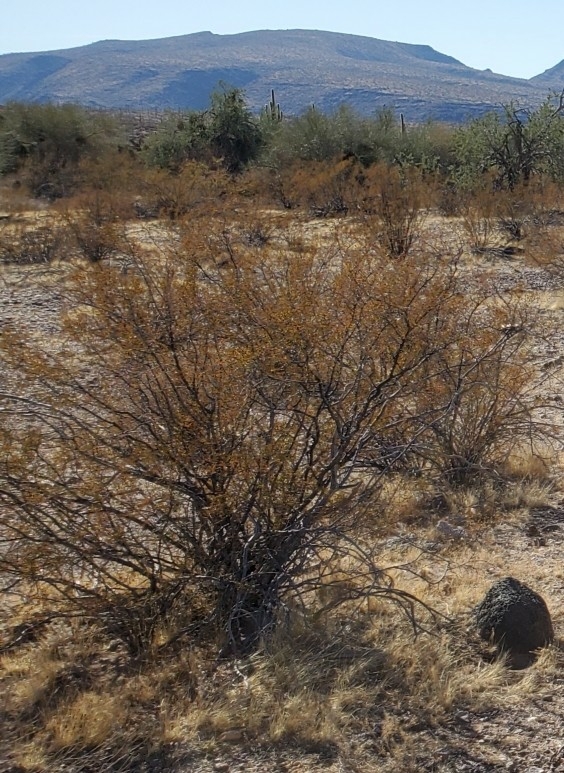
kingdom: Plantae
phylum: Tracheophyta
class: Magnoliopsida
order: Zygophyllales
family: Zygophyllaceae
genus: Larrea
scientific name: Larrea tridentata
